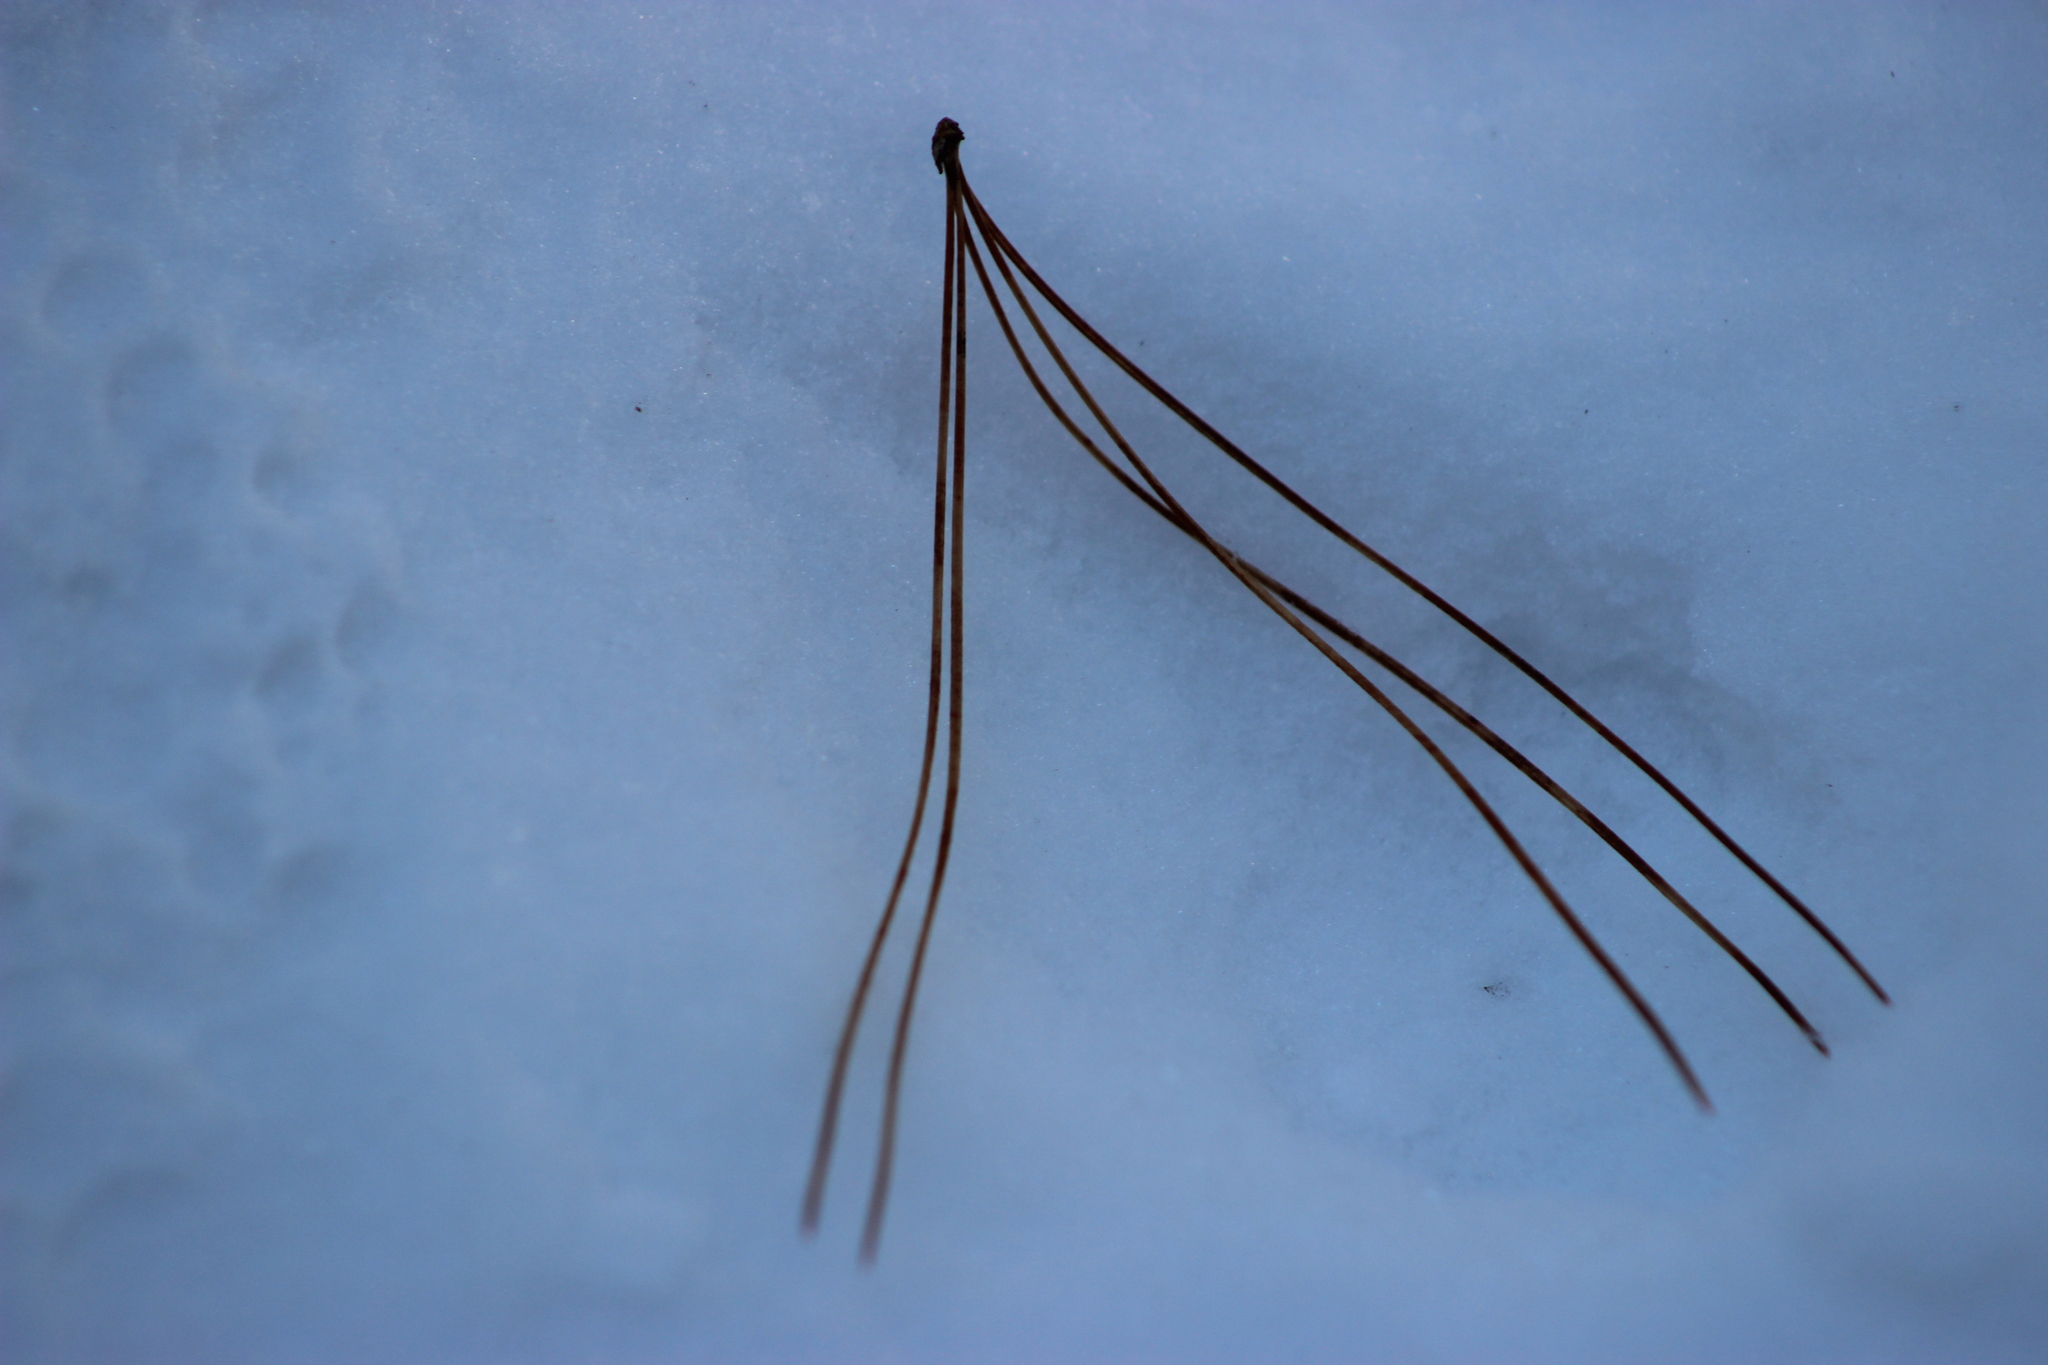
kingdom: Plantae
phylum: Tracheophyta
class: Pinopsida
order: Pinales
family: Pinaceae
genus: Pinus
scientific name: Pinus sibirica
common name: Siberian pine
